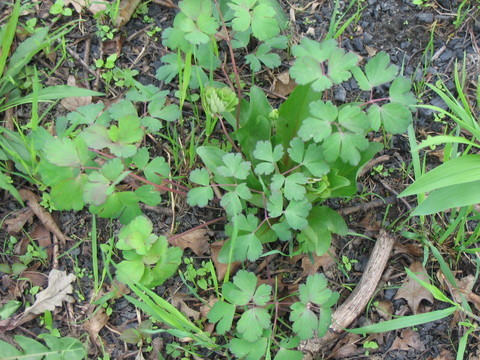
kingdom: Plantae
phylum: Tracheophyta
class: Magnoliopsida
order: Ranunculales
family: Ranunculaceae
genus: Aquilegia
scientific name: Aquilegia canadensis
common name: American columbine
